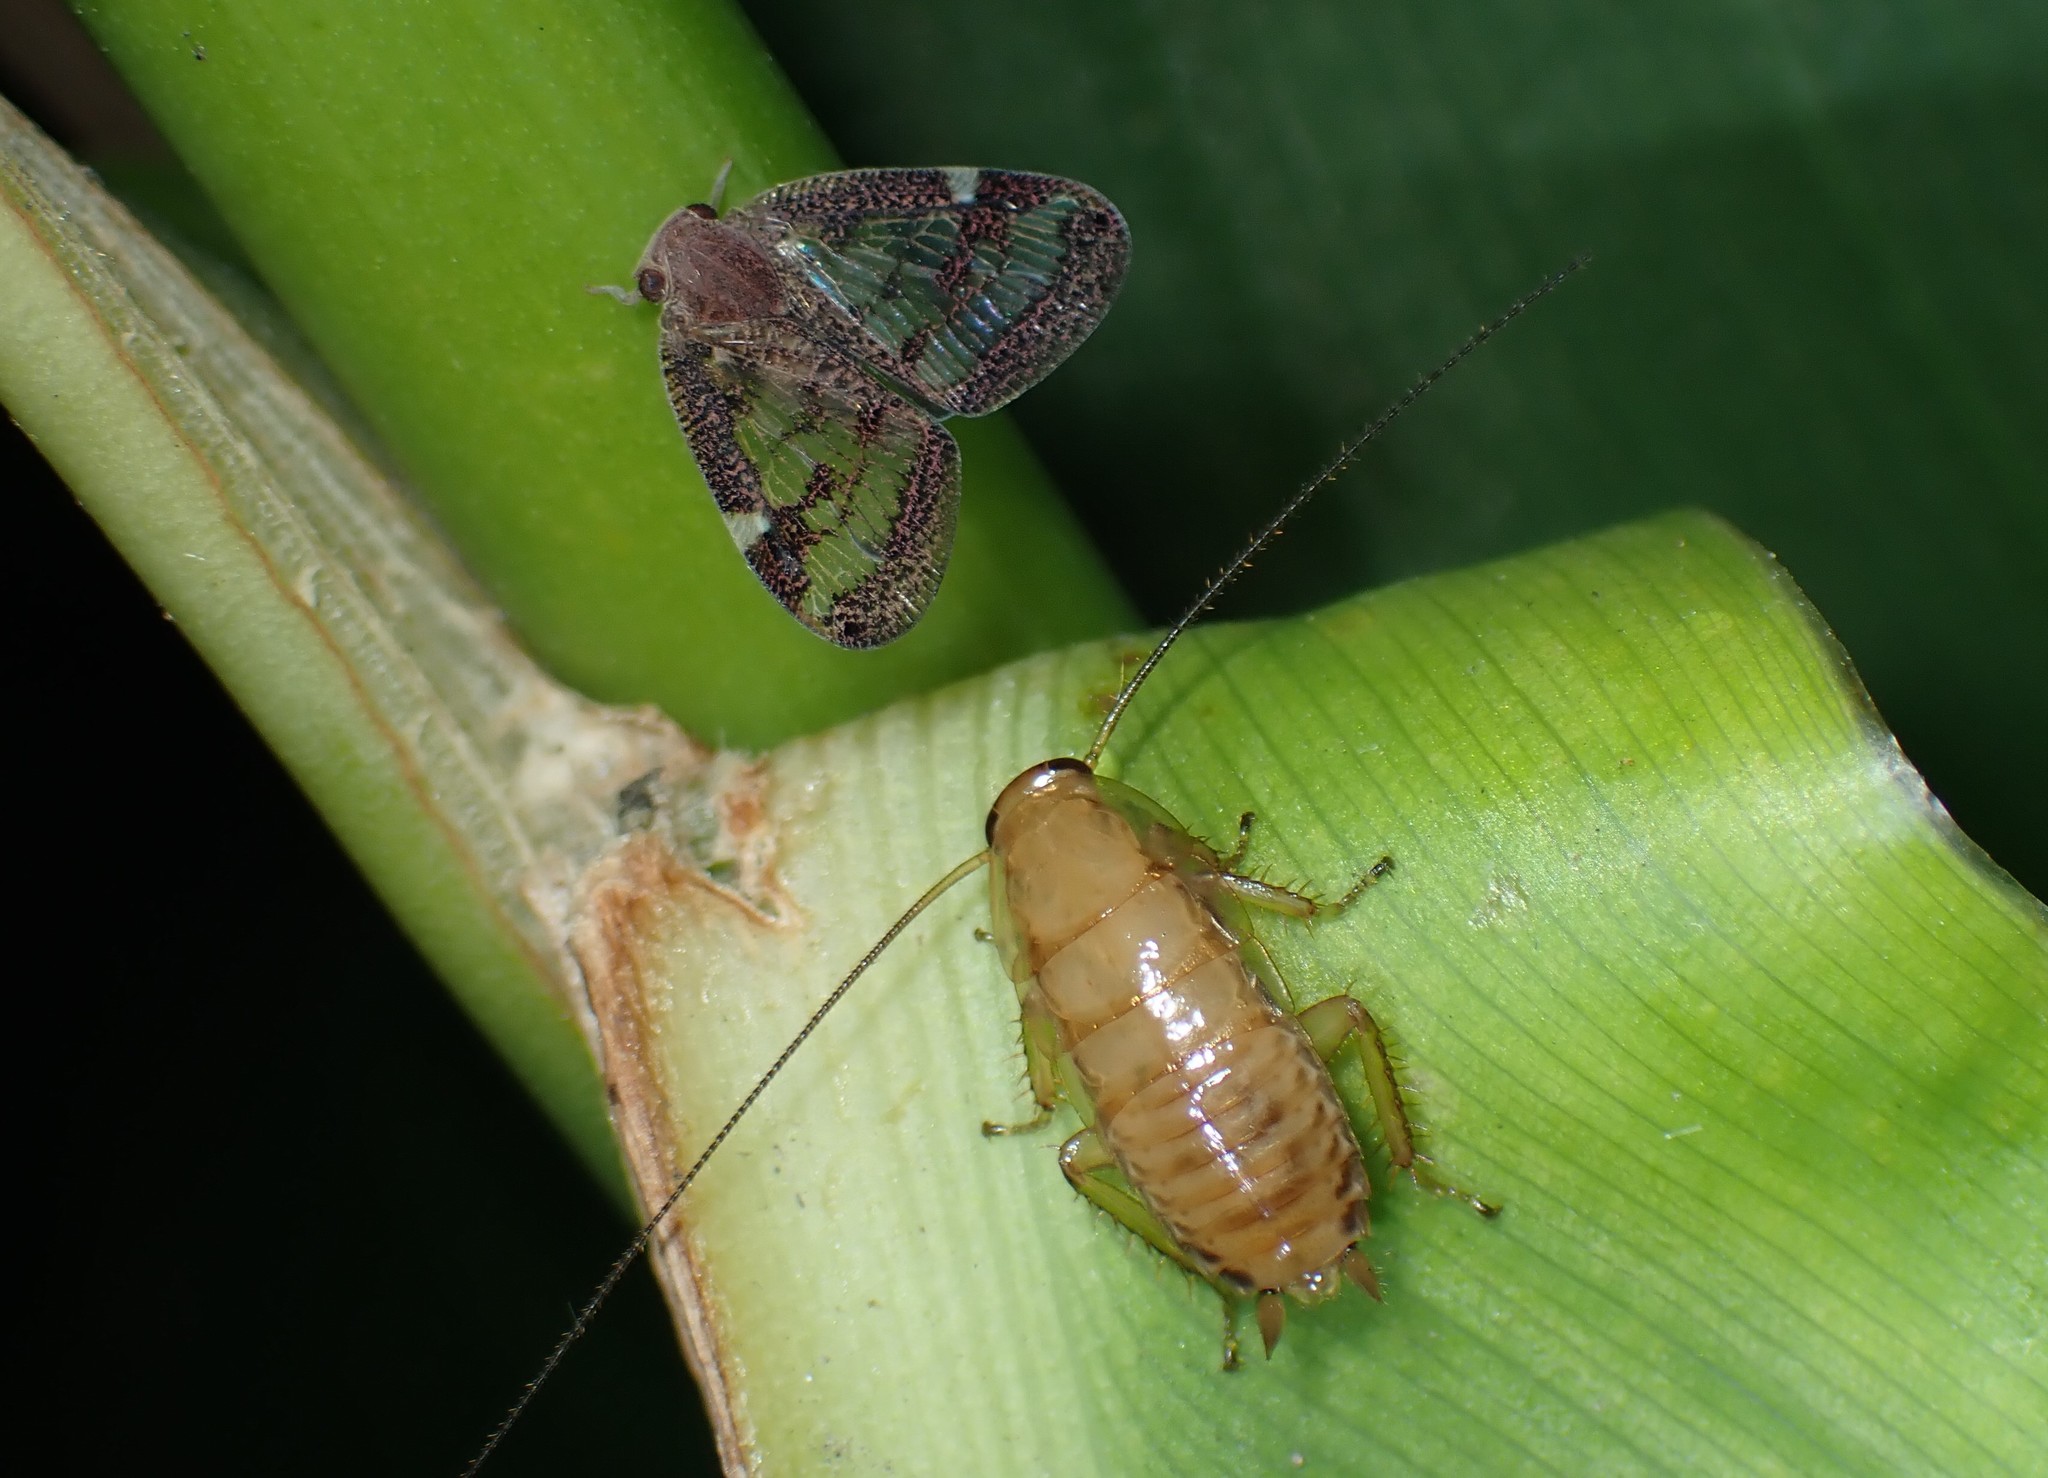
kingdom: Animalia
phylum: Arthropoda
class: Insecta
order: Hemiptera
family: Ricaniidae
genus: Scolypopa
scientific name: Scolypopa australis
